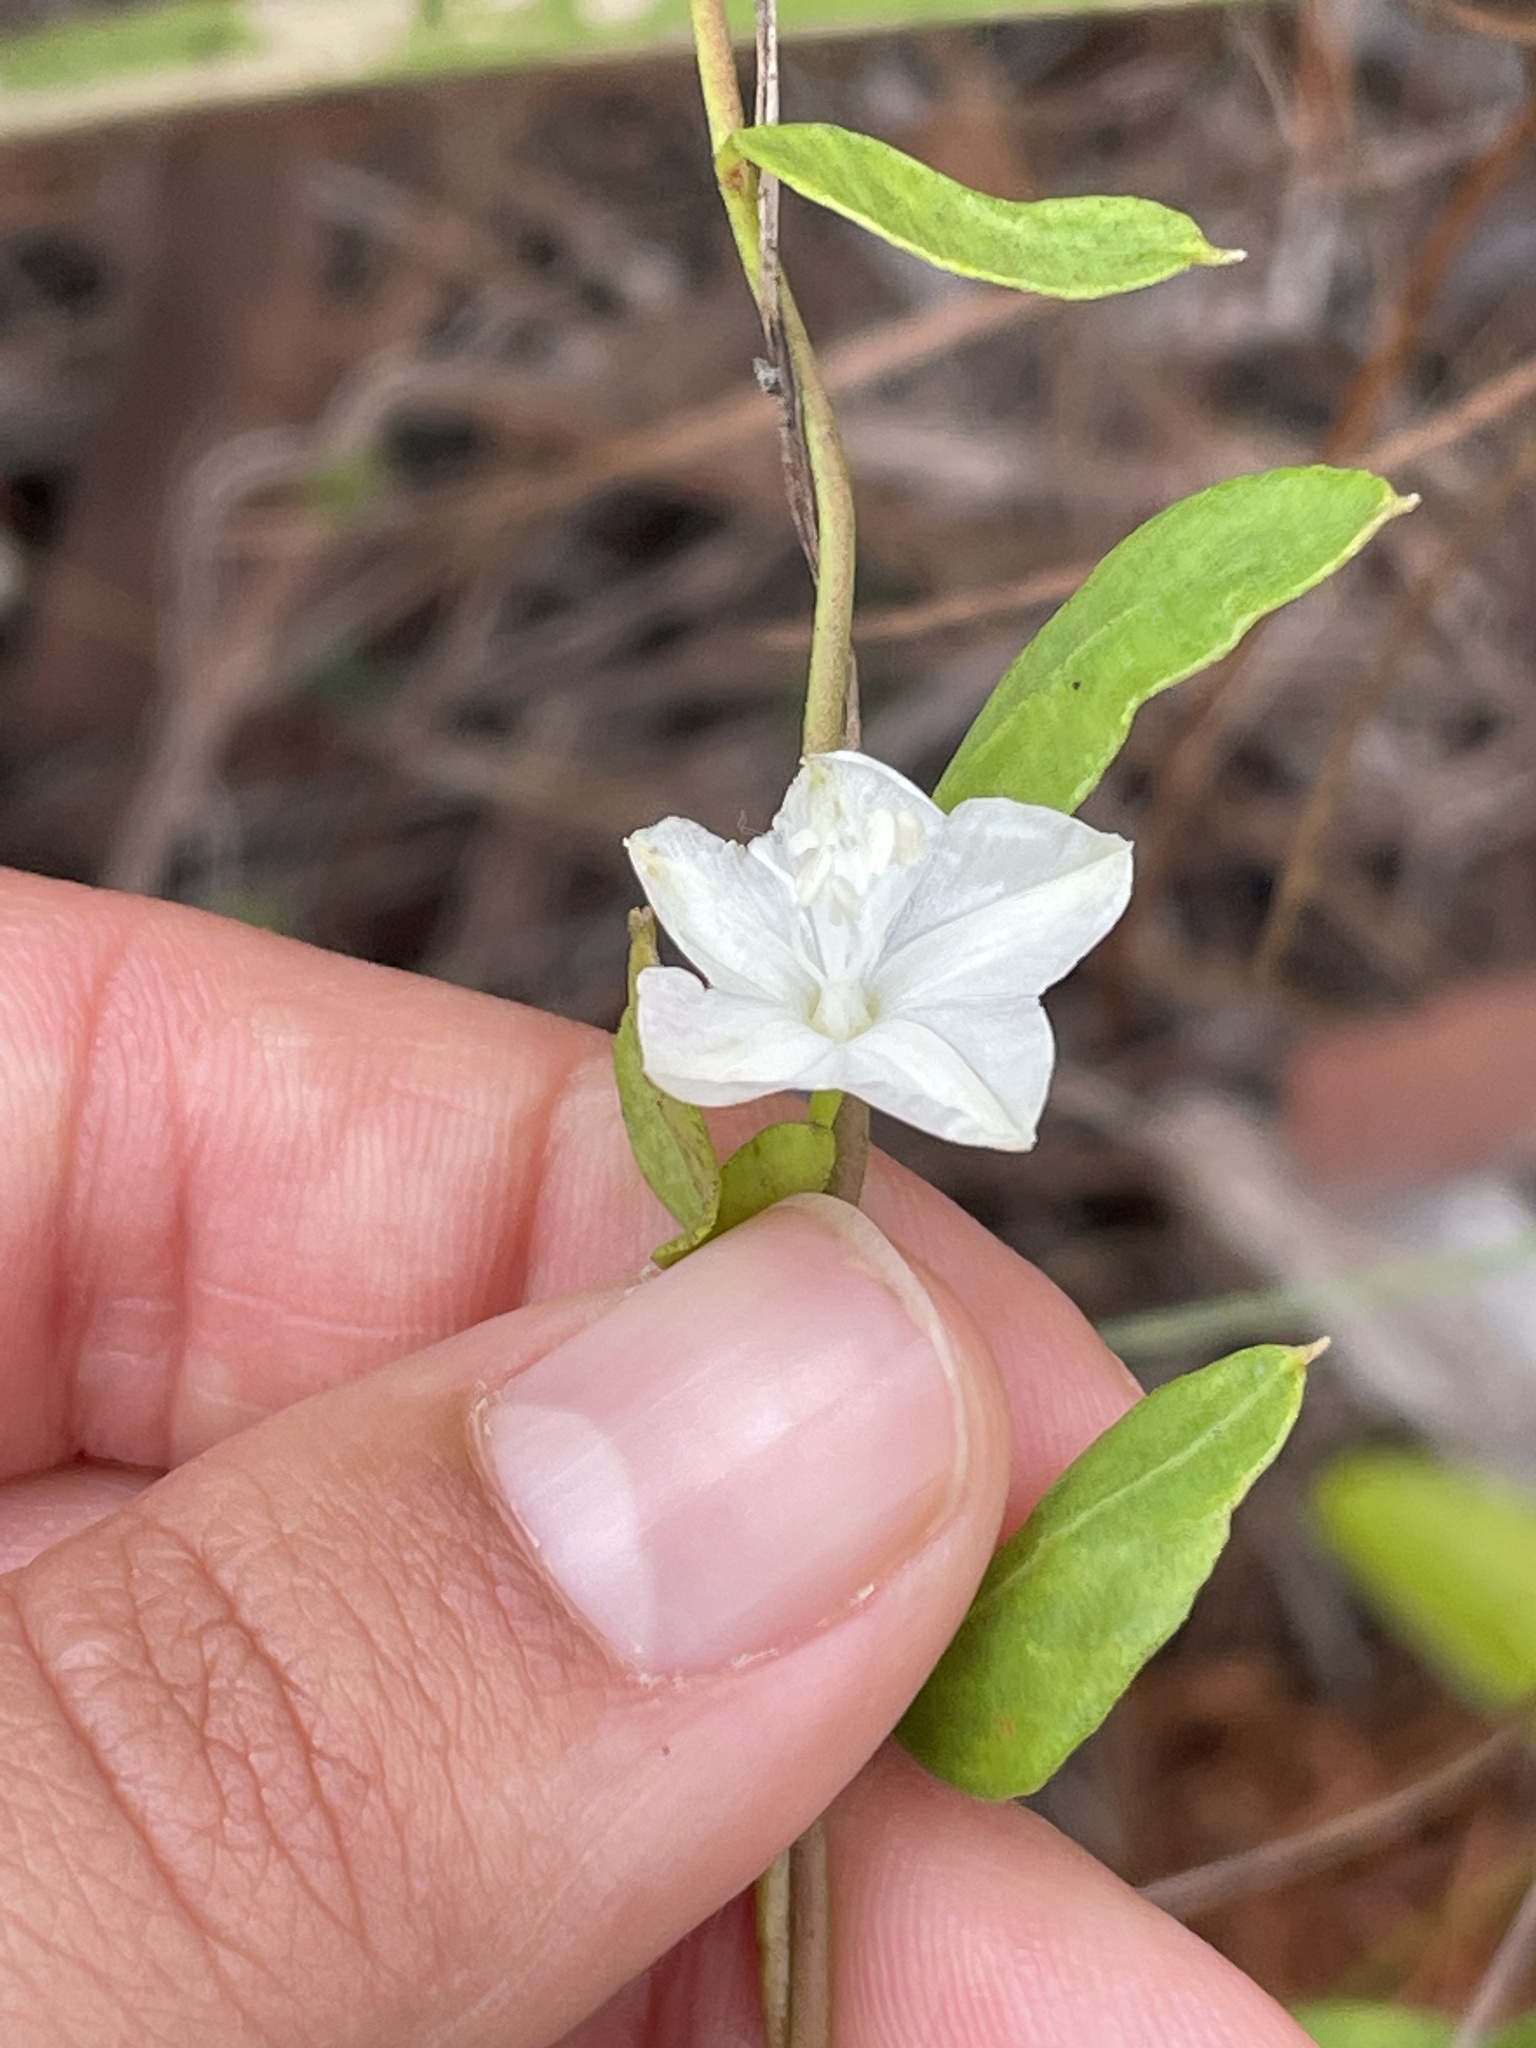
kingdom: Plantae
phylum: Tracheophyta
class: Magnoliopsida
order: Solanales
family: Convolvulaceae
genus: Jacquemontia
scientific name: Jacquemontia curtissii
